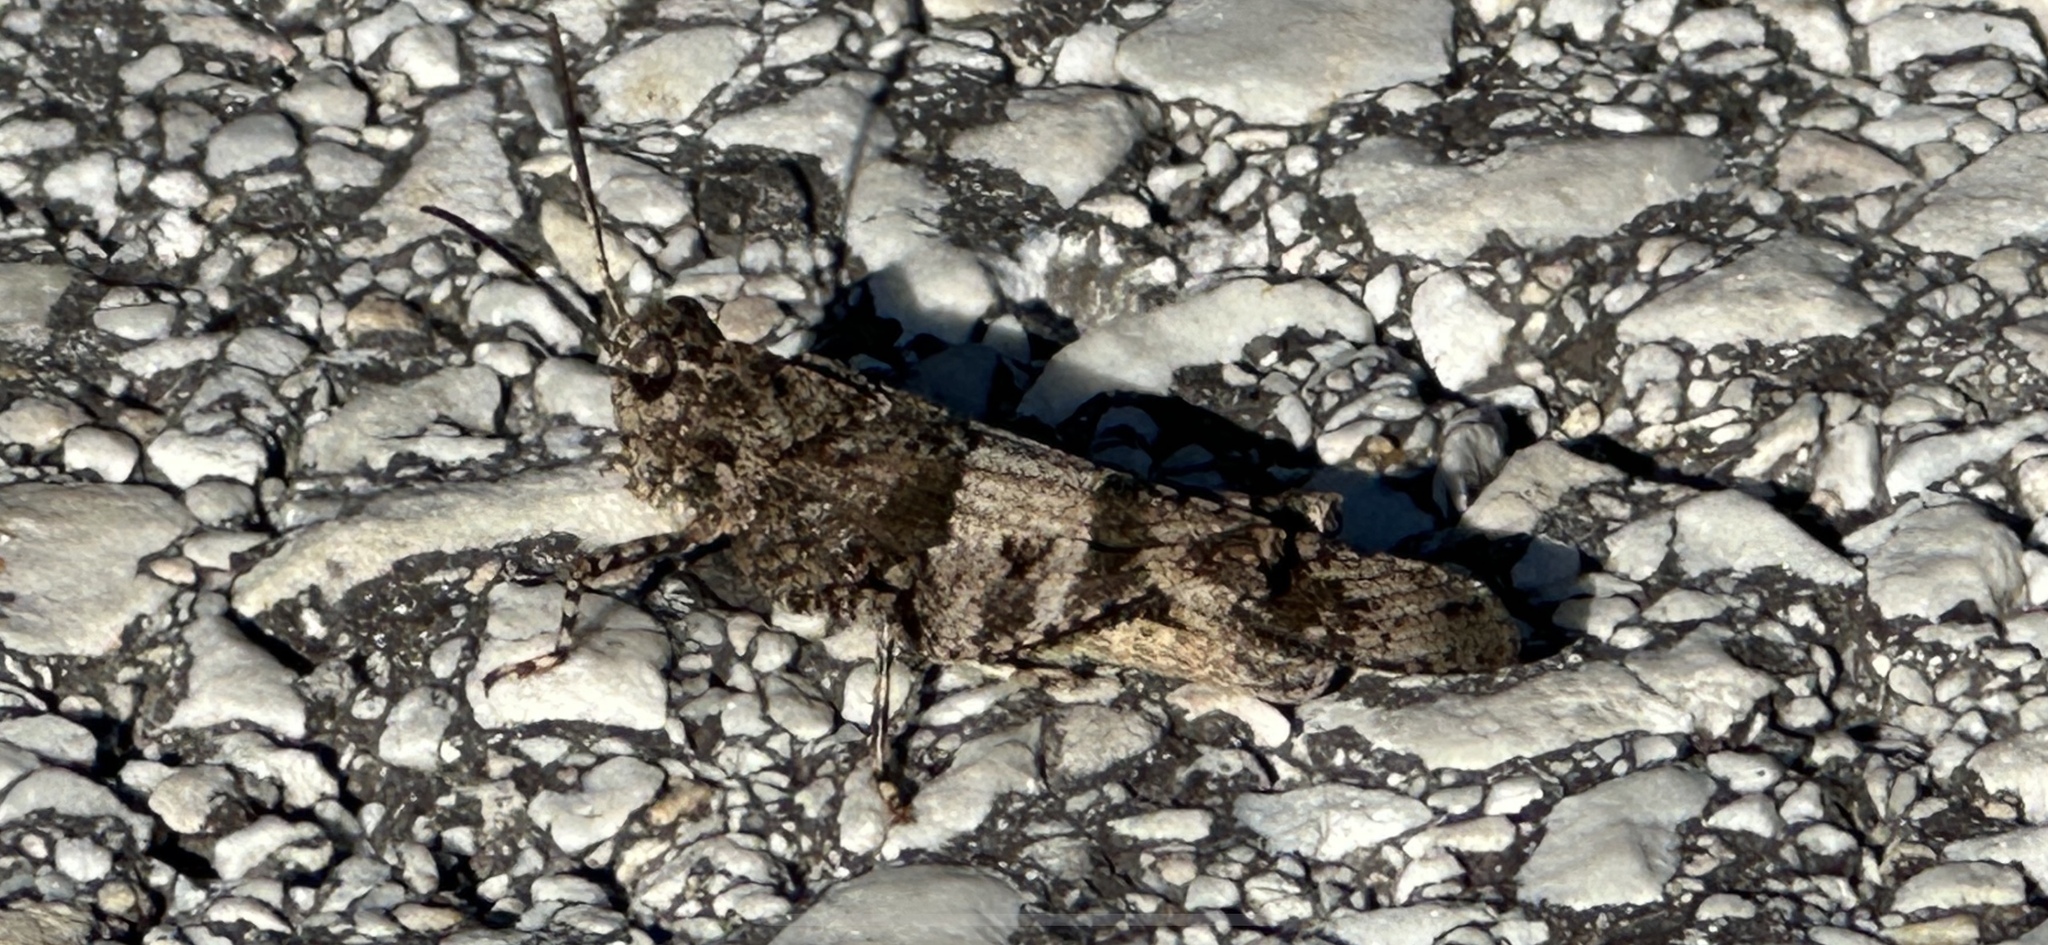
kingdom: Animalia
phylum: Arthropoda
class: Insecta
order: Orthoptera
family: Acrididae
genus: Oedipoda
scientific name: Oedipoda caerulescens
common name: Blue-winged grasshopper
